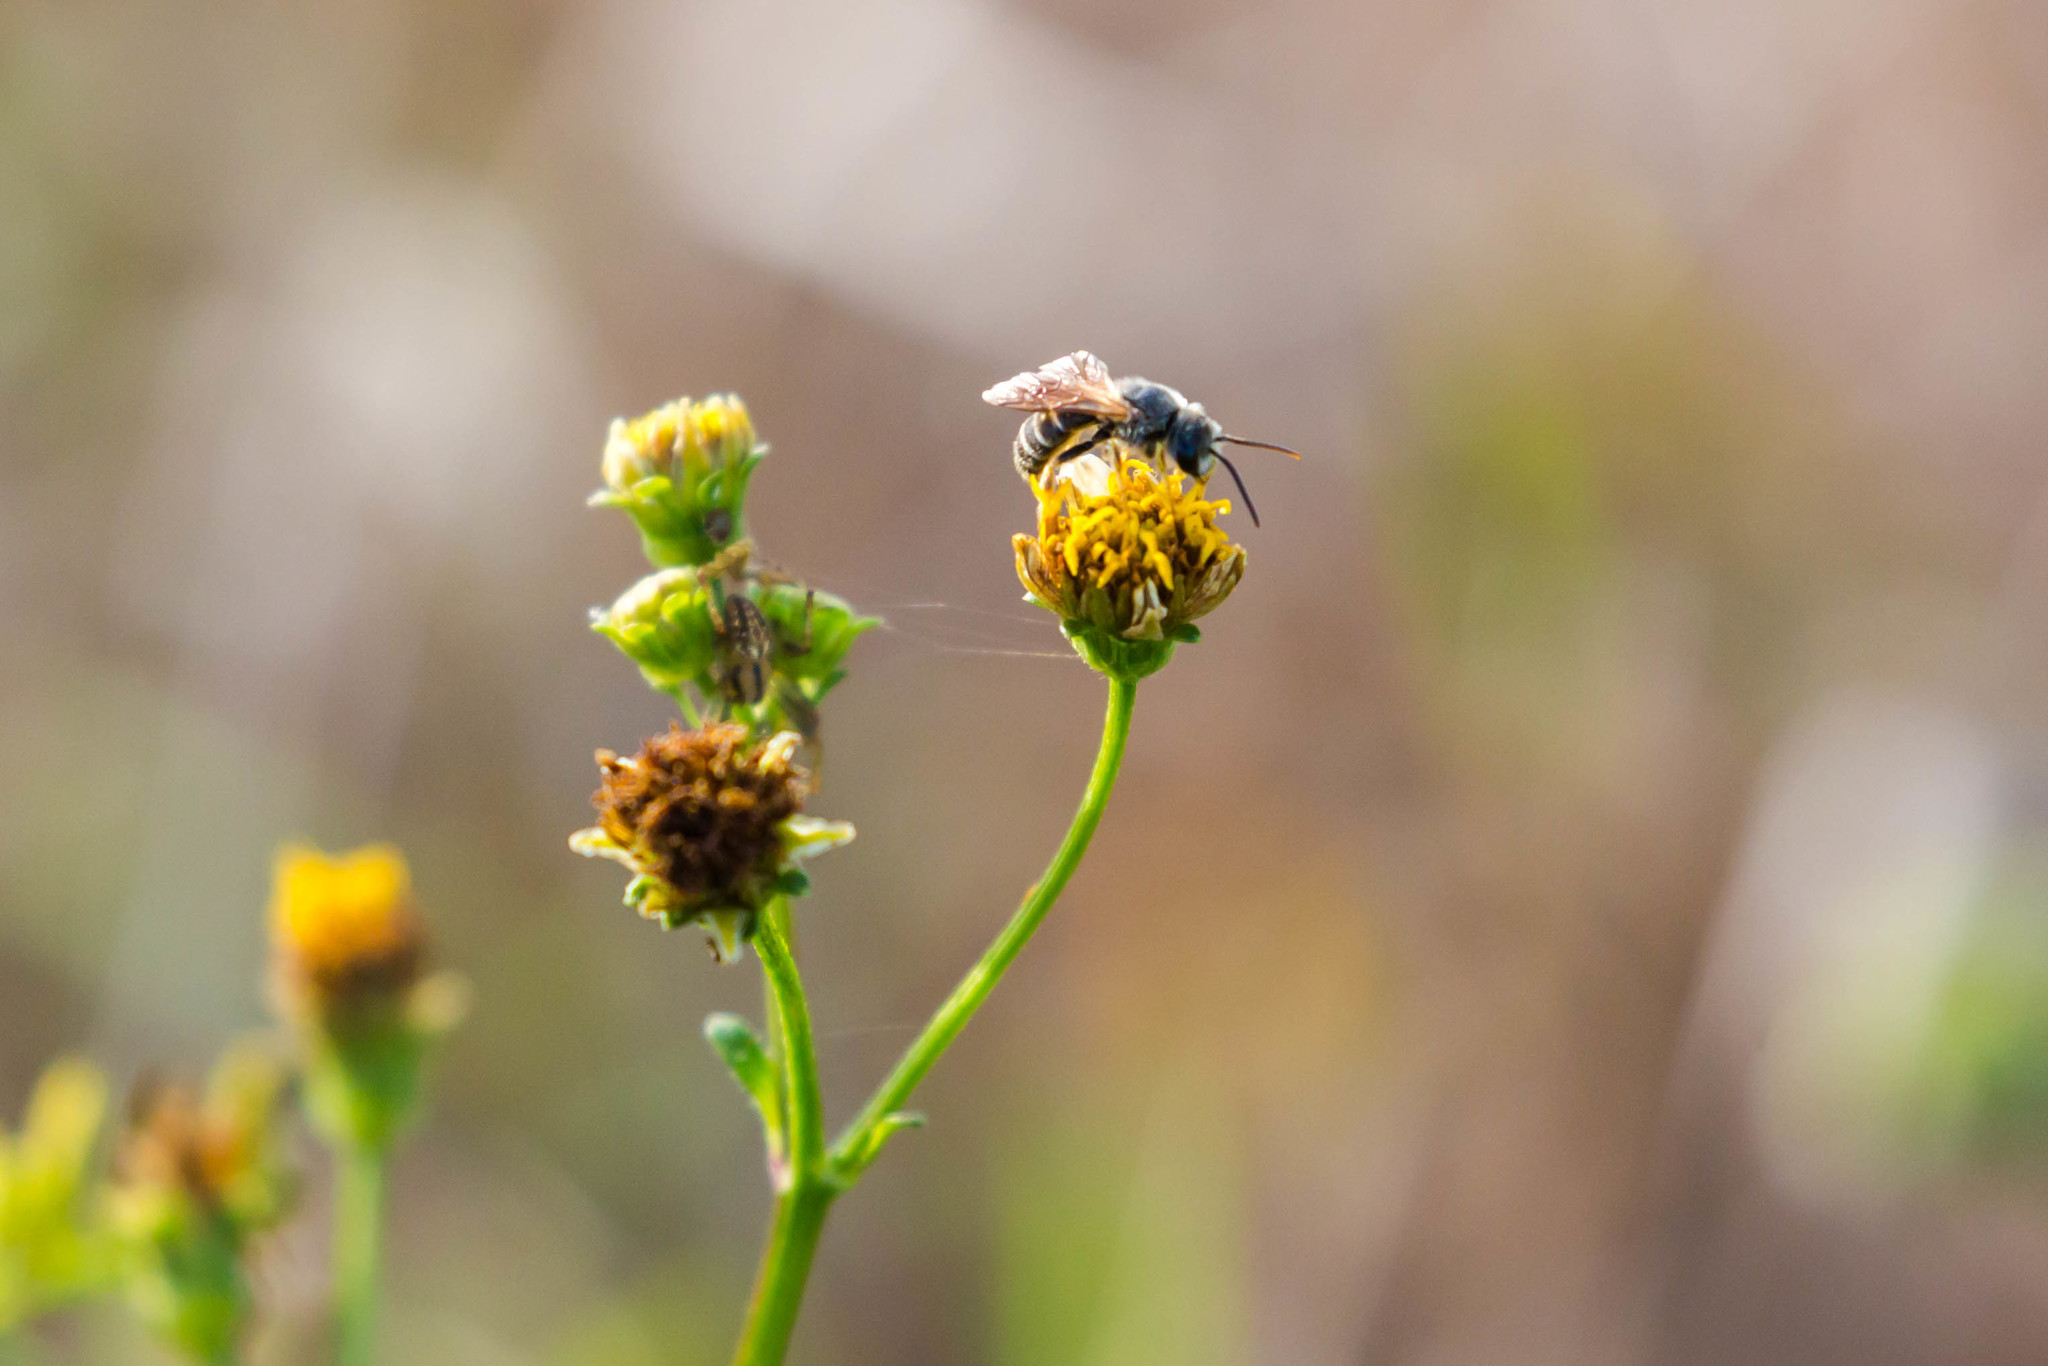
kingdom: Animalia
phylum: Arthropoda
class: Insecta
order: Hymenoptera
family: Halictidae
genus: Halictus
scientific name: Halictus poeyi
